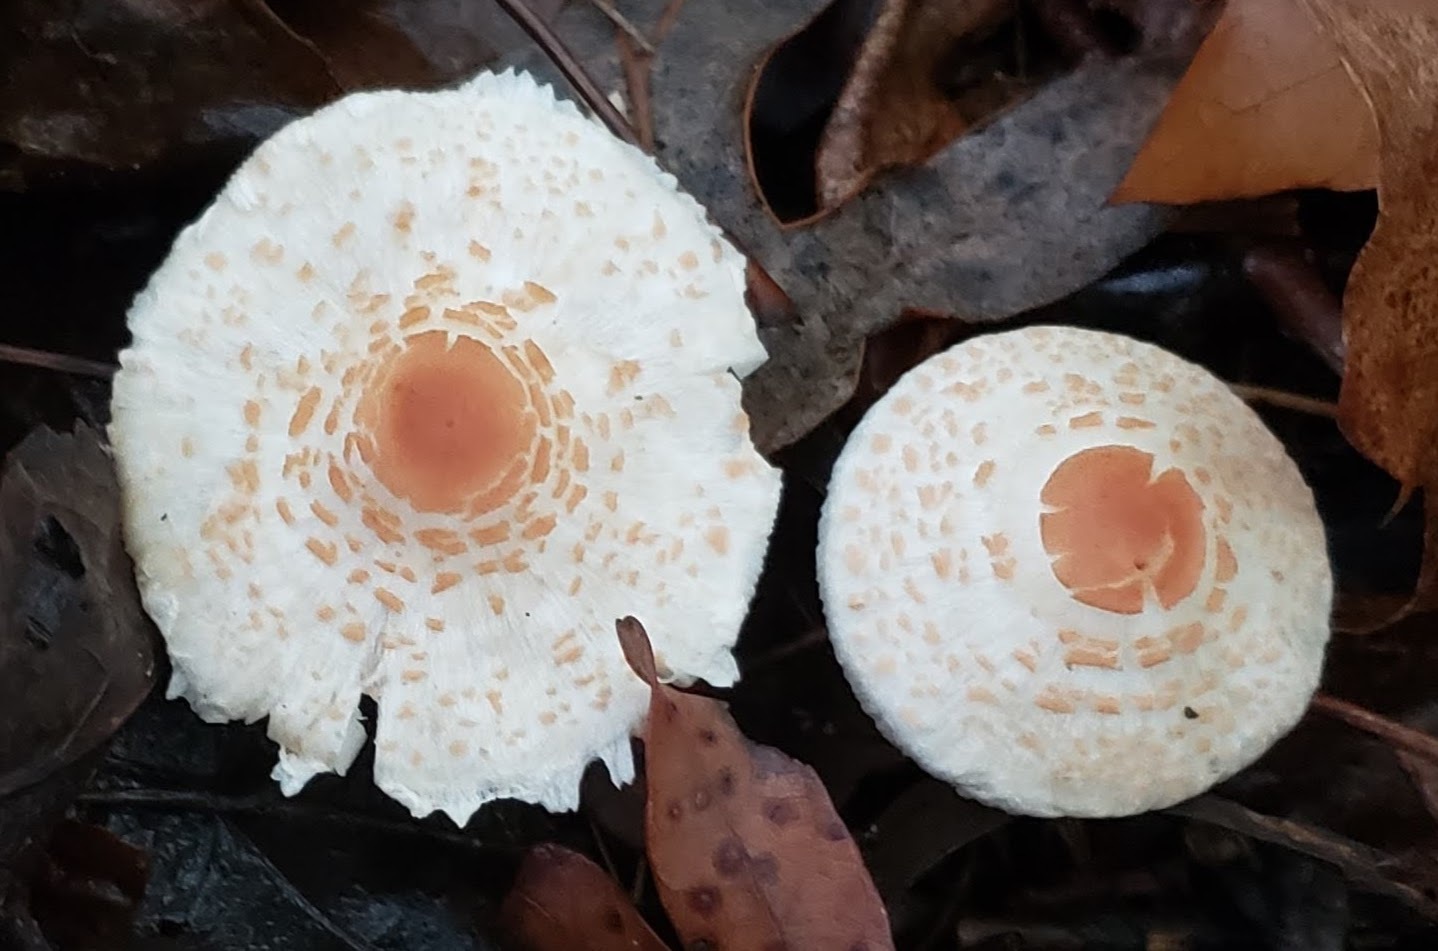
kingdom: Fungi
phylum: Basidiomycota
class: Agaricomycetes
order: Agaricales
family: Agaricaceae
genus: Lepiota
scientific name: Lepiota cristata
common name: Stinking dapperling
